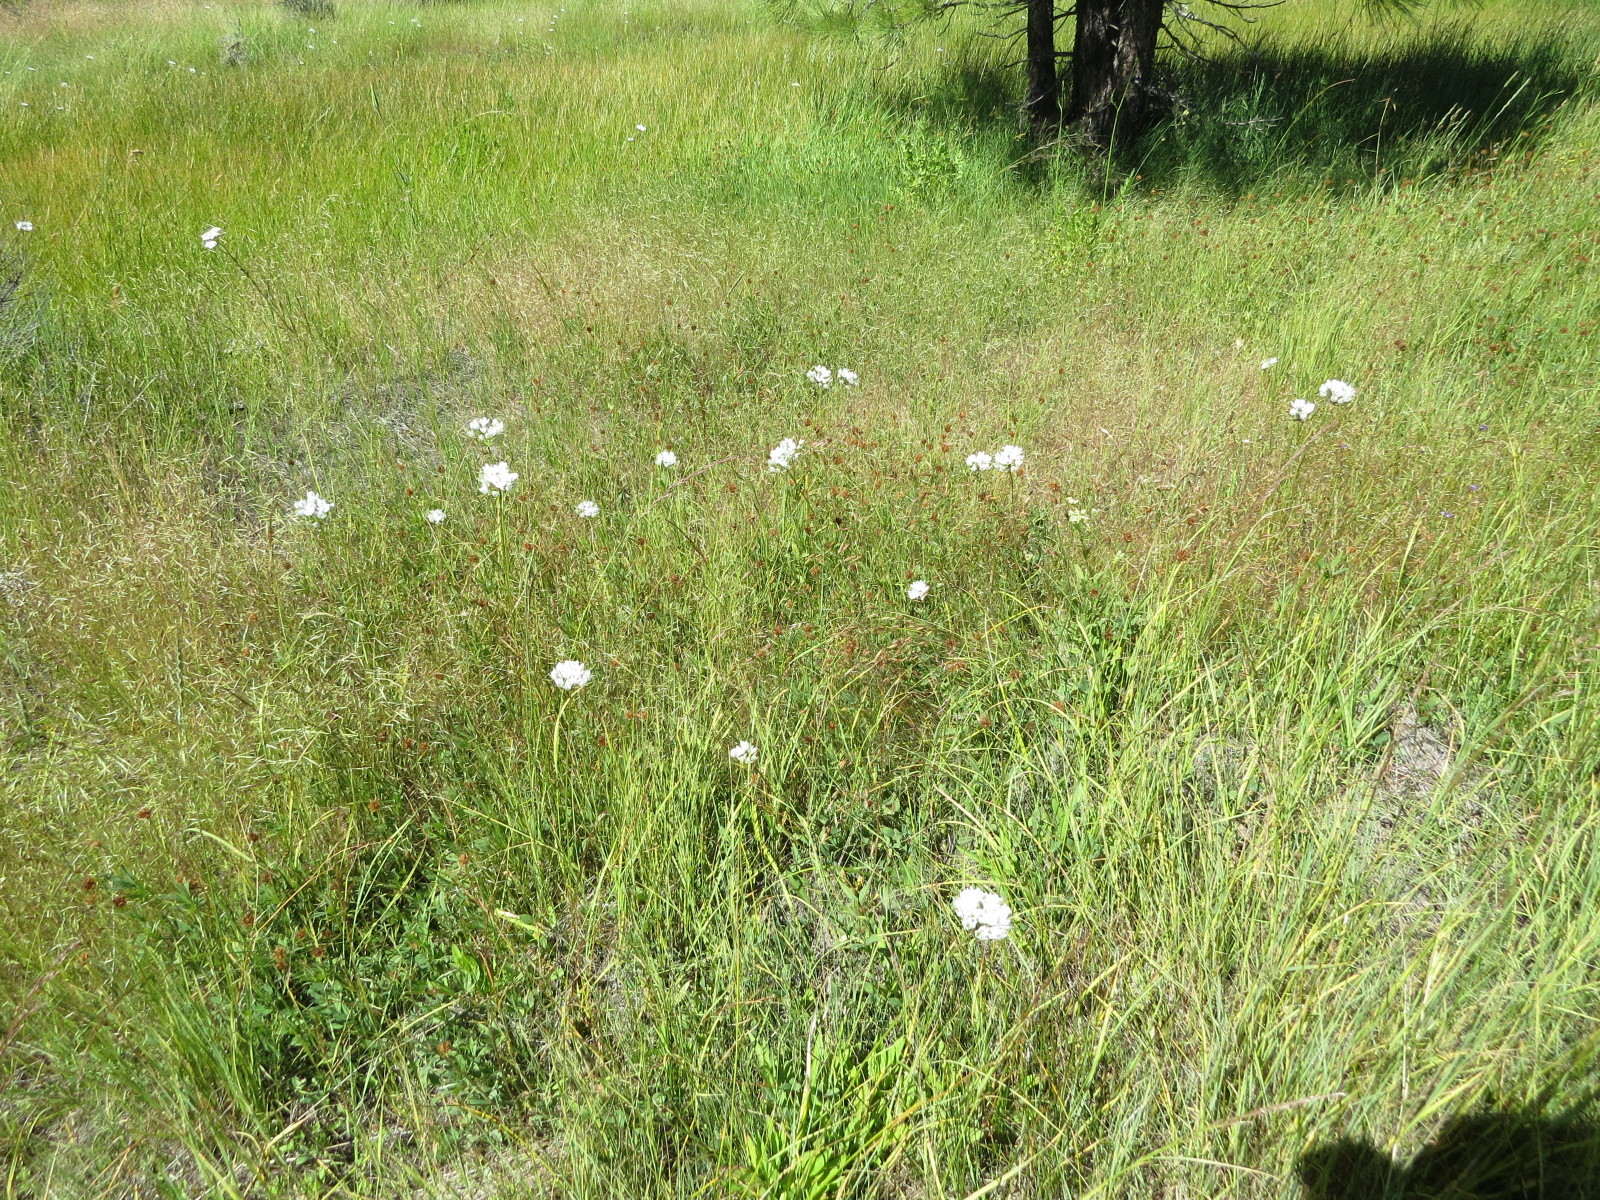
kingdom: Plantae
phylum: Tracheophyta
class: Liliopsida
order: Asparagales
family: Asparagaceae
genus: Triteleia
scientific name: Triteleia hyacinthina
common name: White brodiaea
